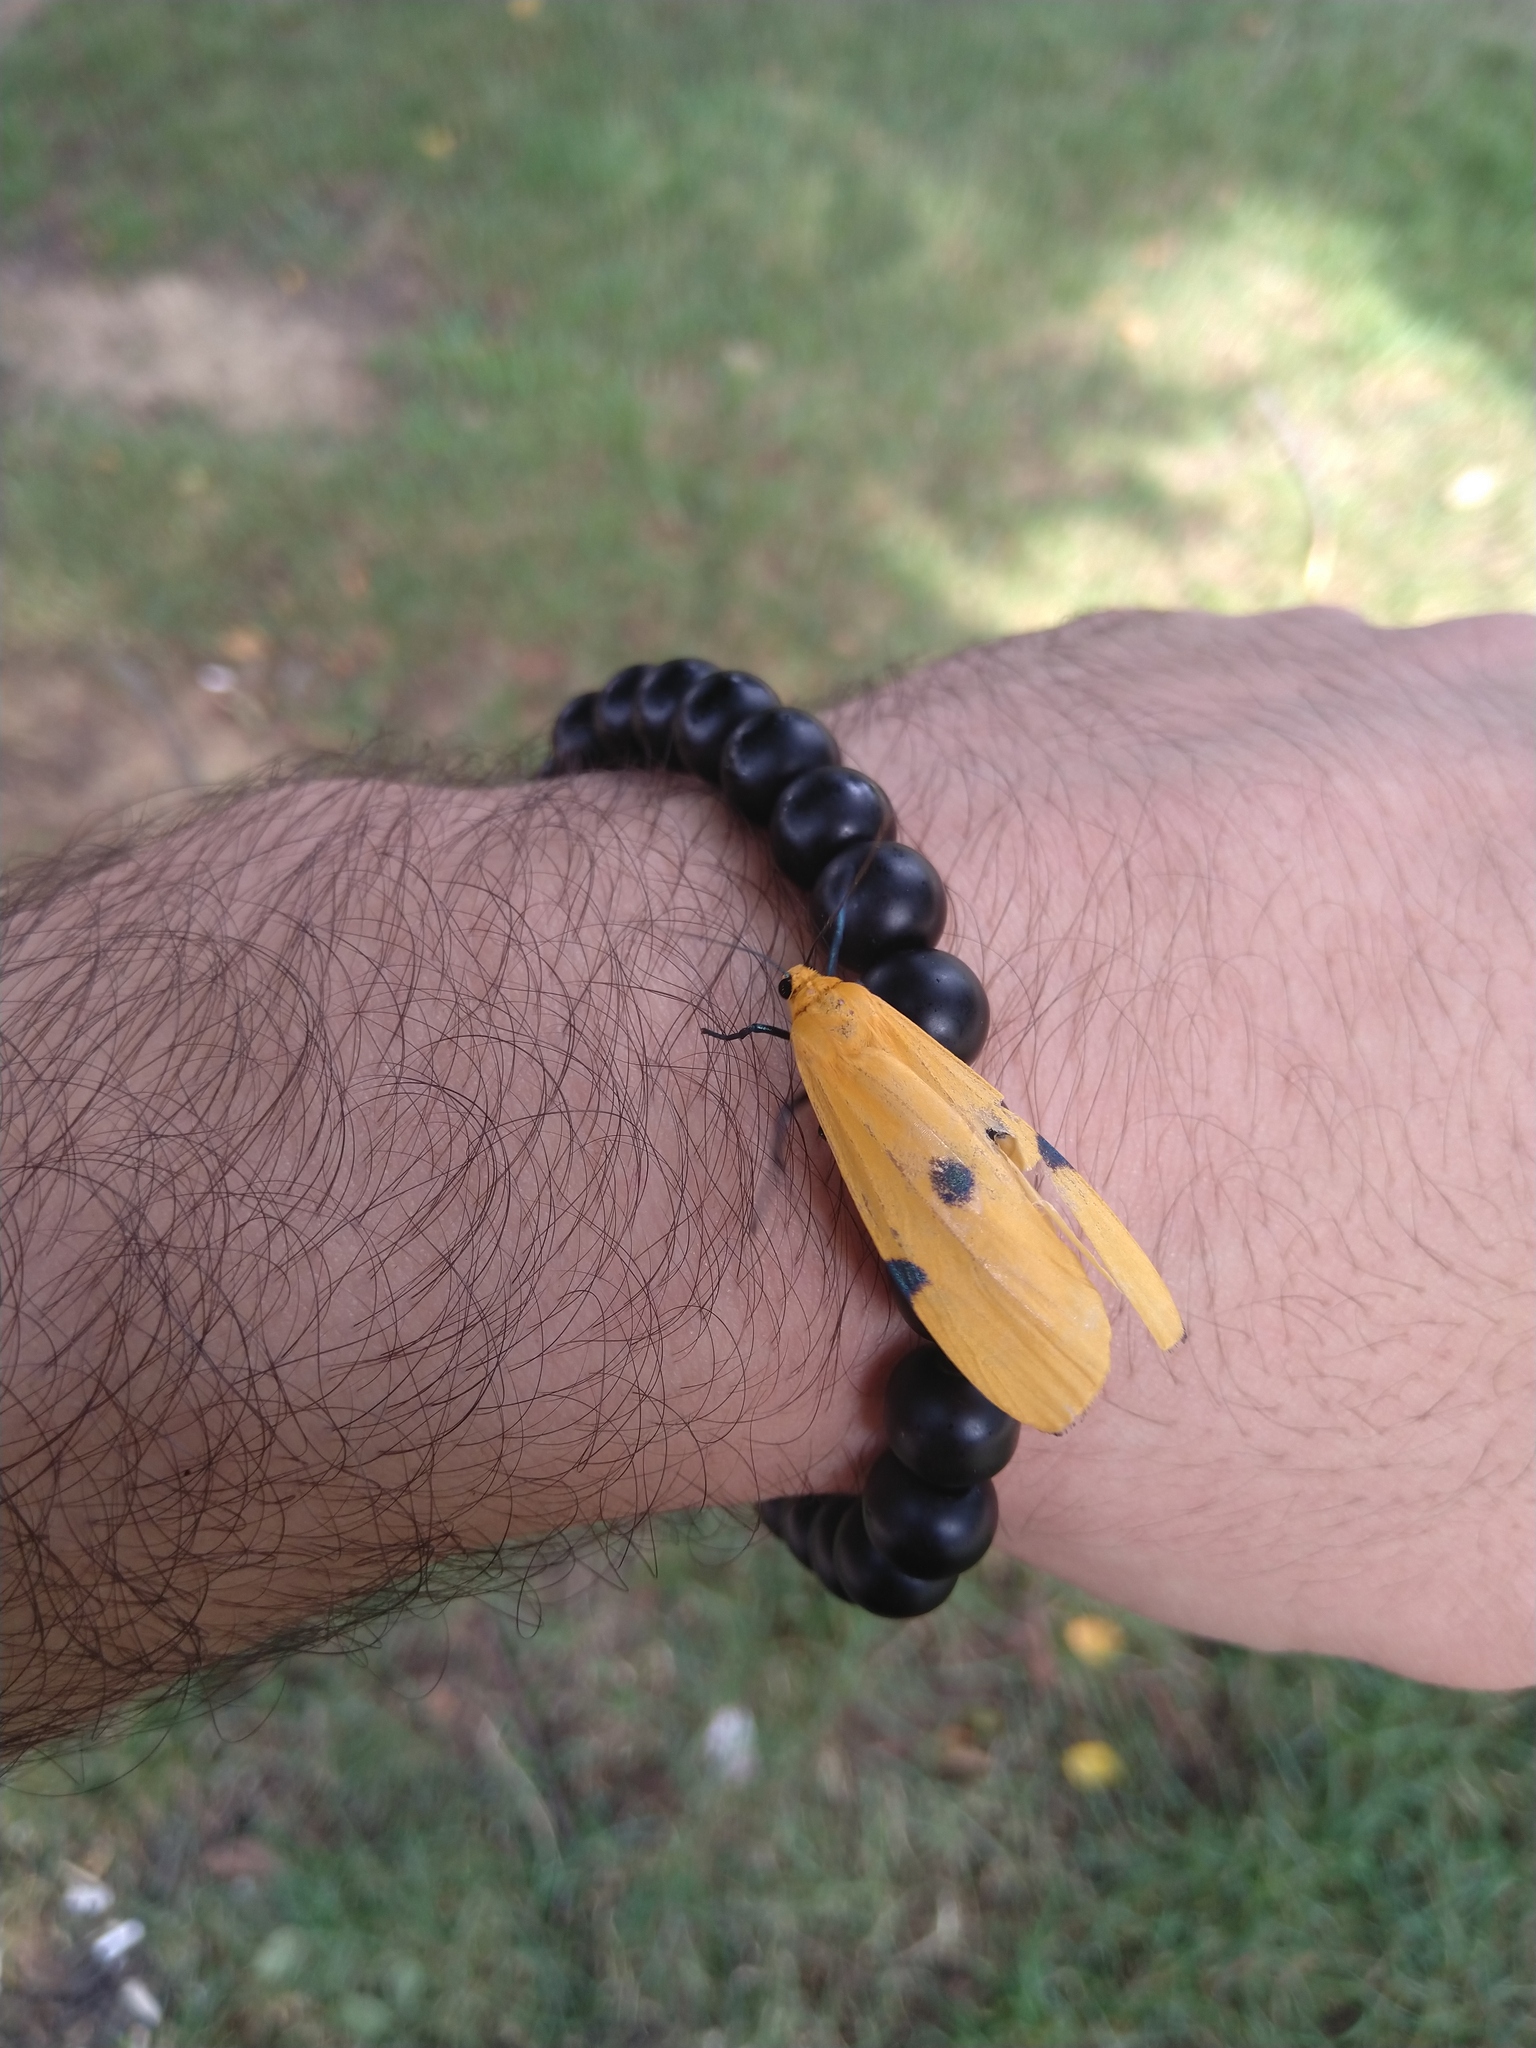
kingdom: Animalia
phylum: Arthropoda
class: Insecta
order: Lepidoptera
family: Erebidae
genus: Lithosia
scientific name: Lithosia quadra
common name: Four-spotted footman
